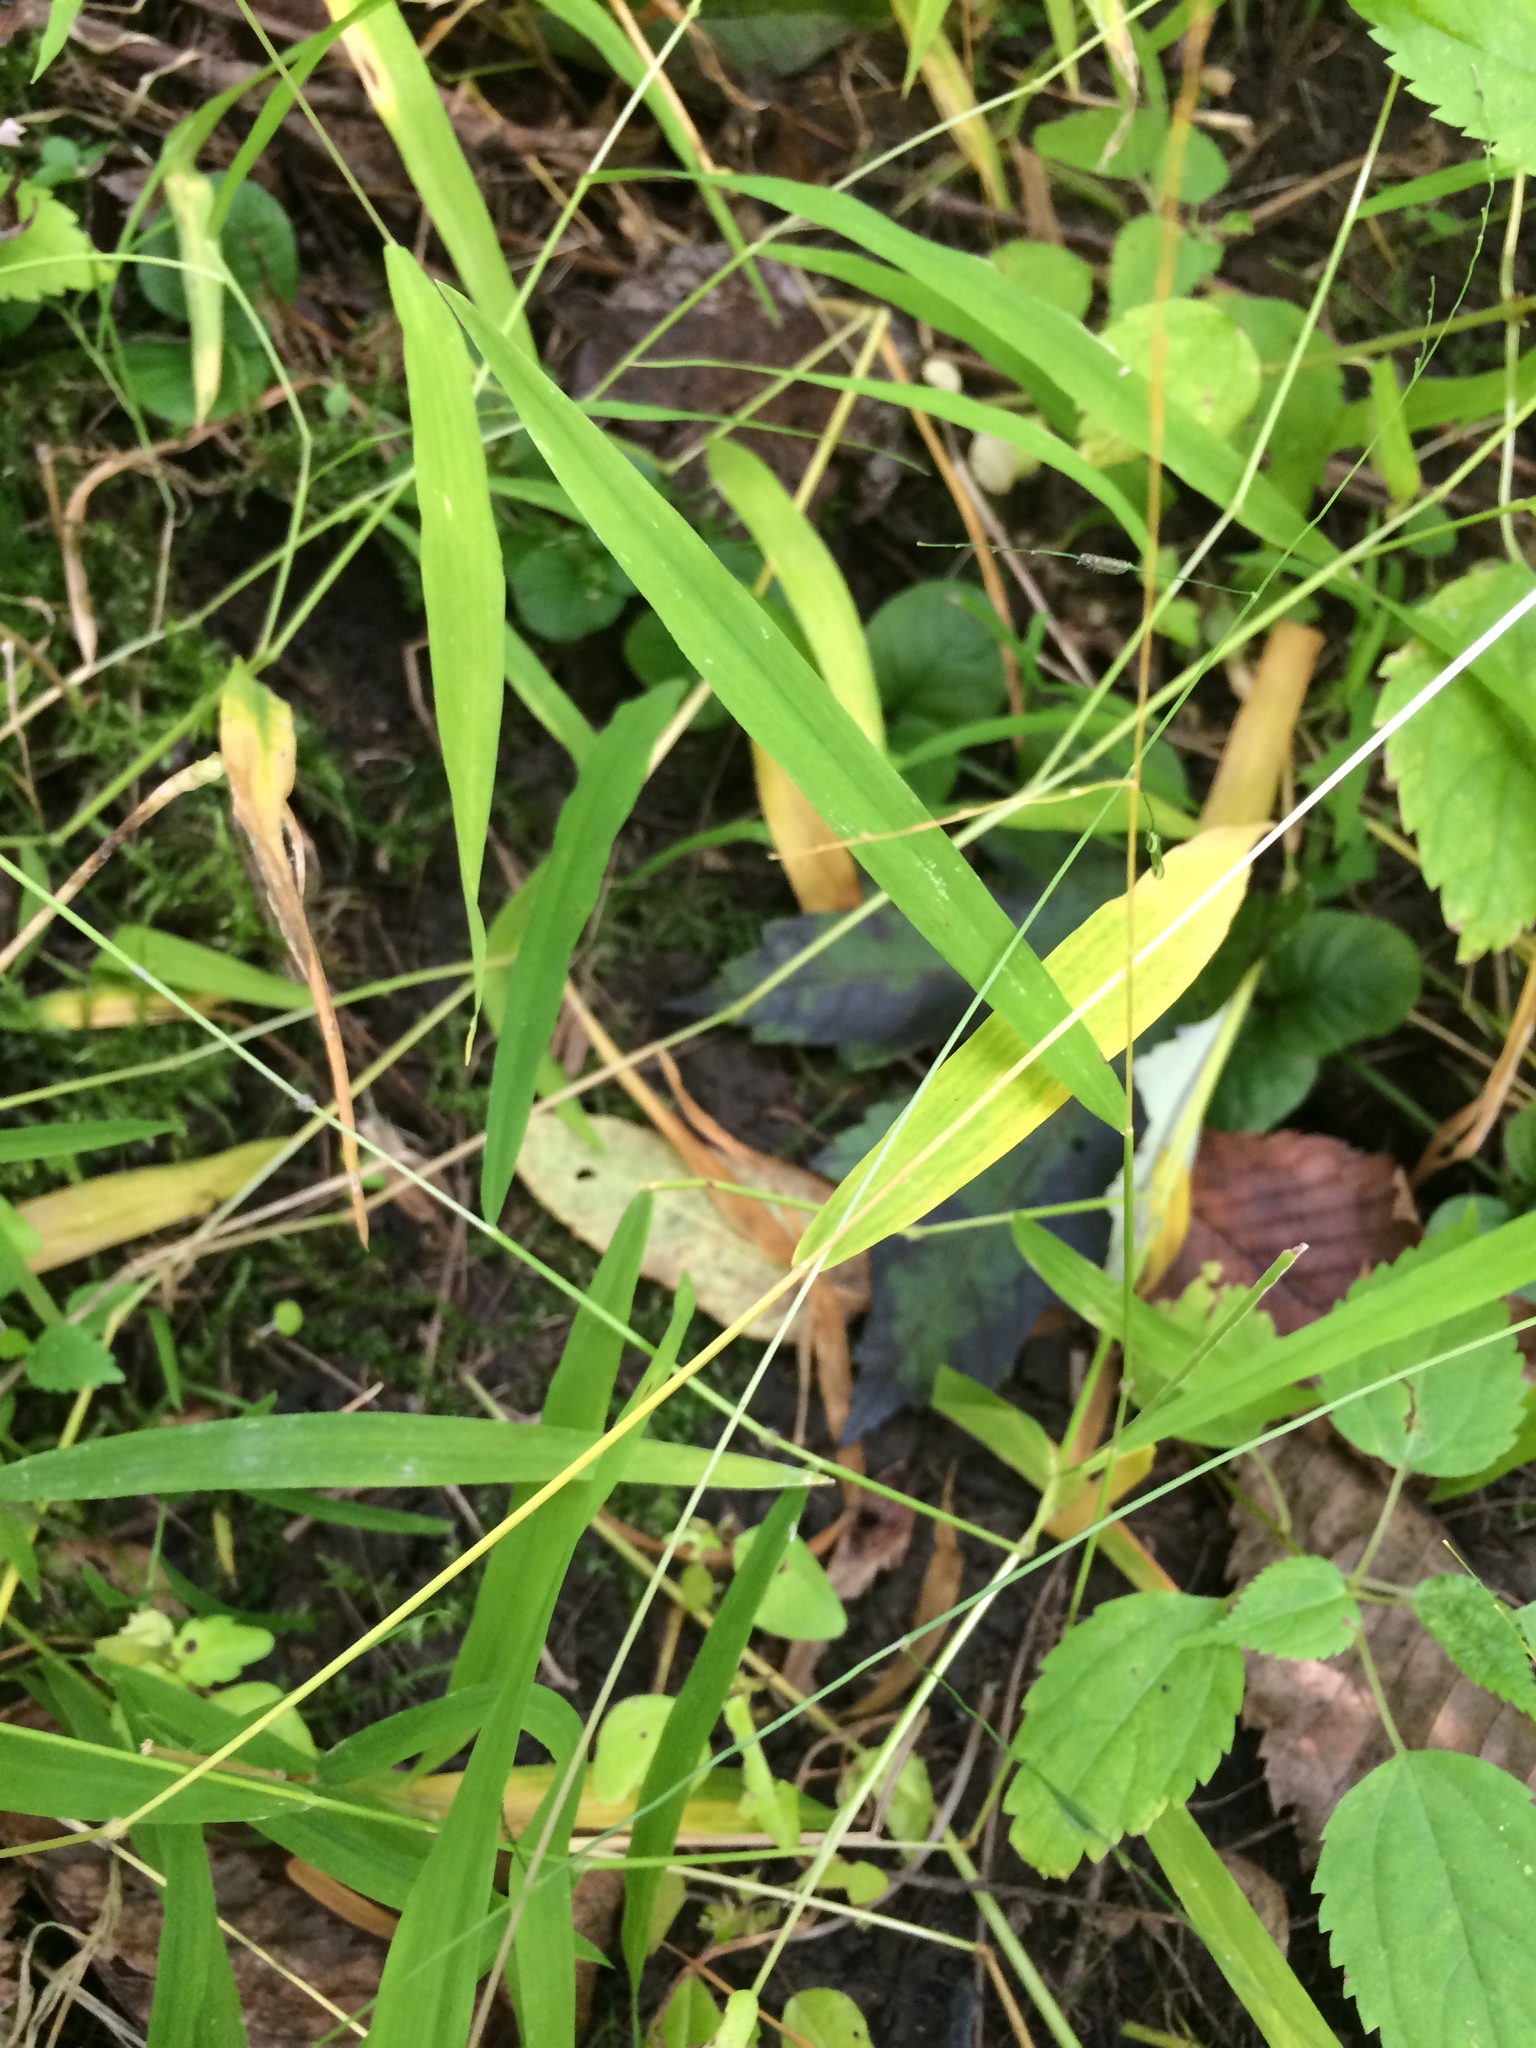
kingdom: Plantae
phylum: Tracheophyta
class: Liliopsida
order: Poales
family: Poaceae
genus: Leersia
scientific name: Leersia virginica
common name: White cutgrass
